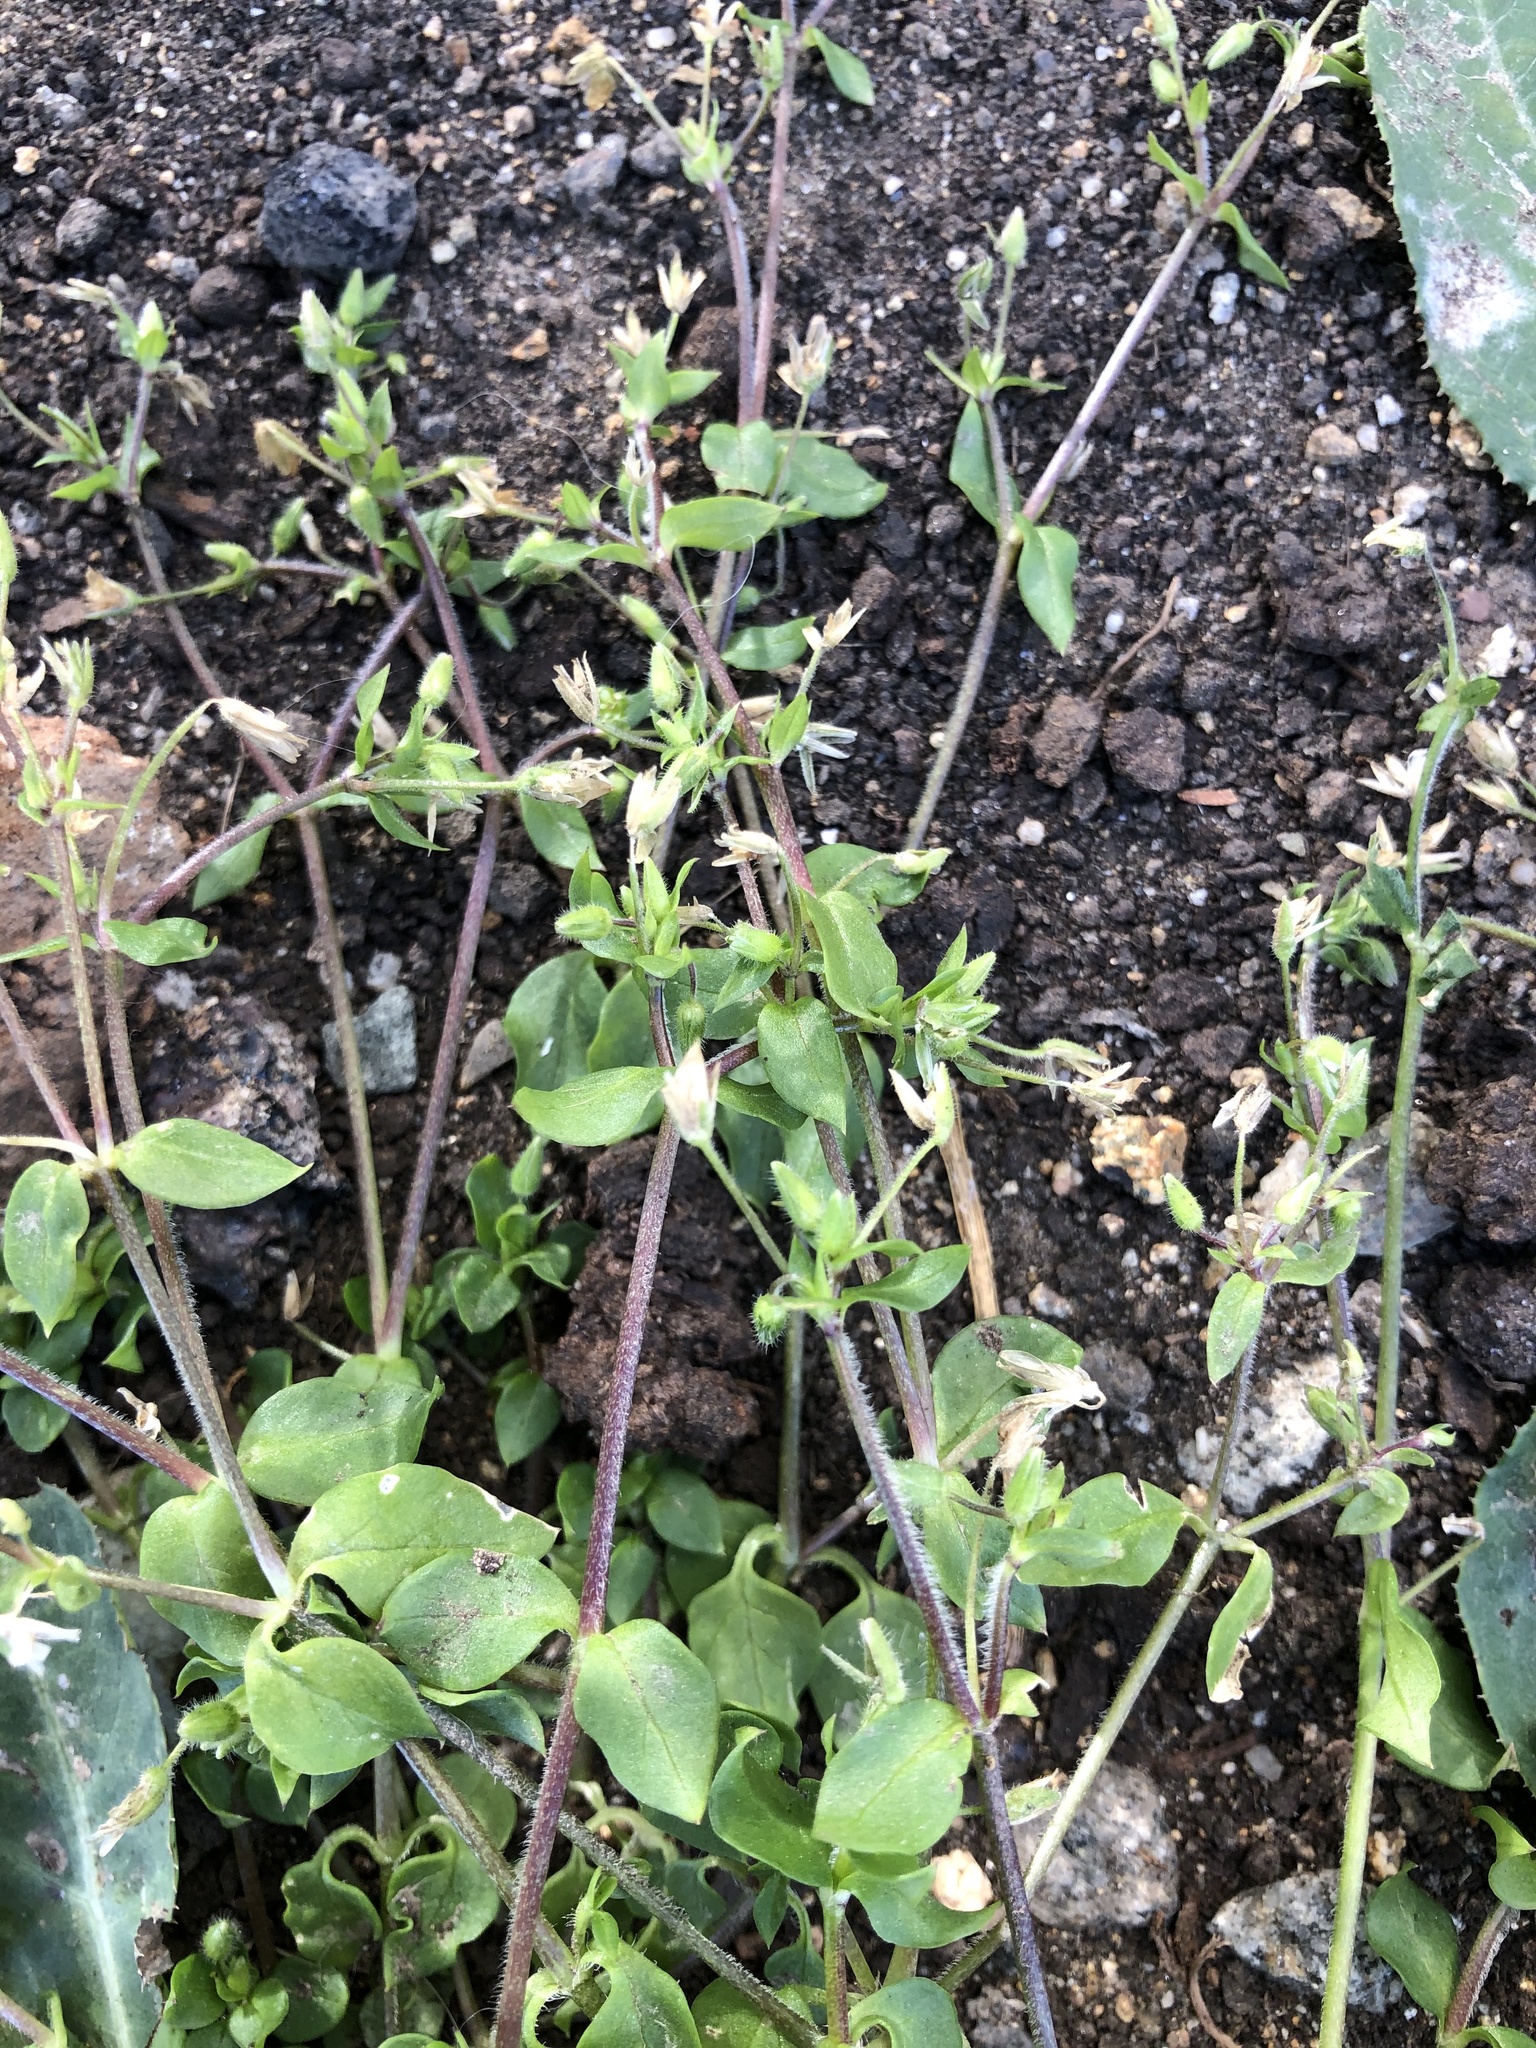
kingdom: Plantae
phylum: Tracheophyta
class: Magnoliopsida
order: Caryophyllales
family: Caryophyllaceae
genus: Stellaria
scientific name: Stellaria media
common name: Common chickweed
